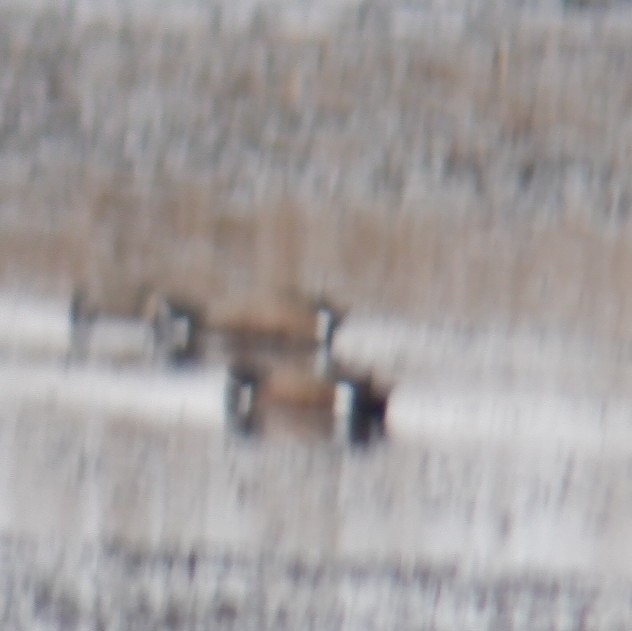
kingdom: Animalia
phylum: Chordata
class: Aves
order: Anseriformes
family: Anatidae
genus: Spatula
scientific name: Spatula discors
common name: Blue-winged teal
